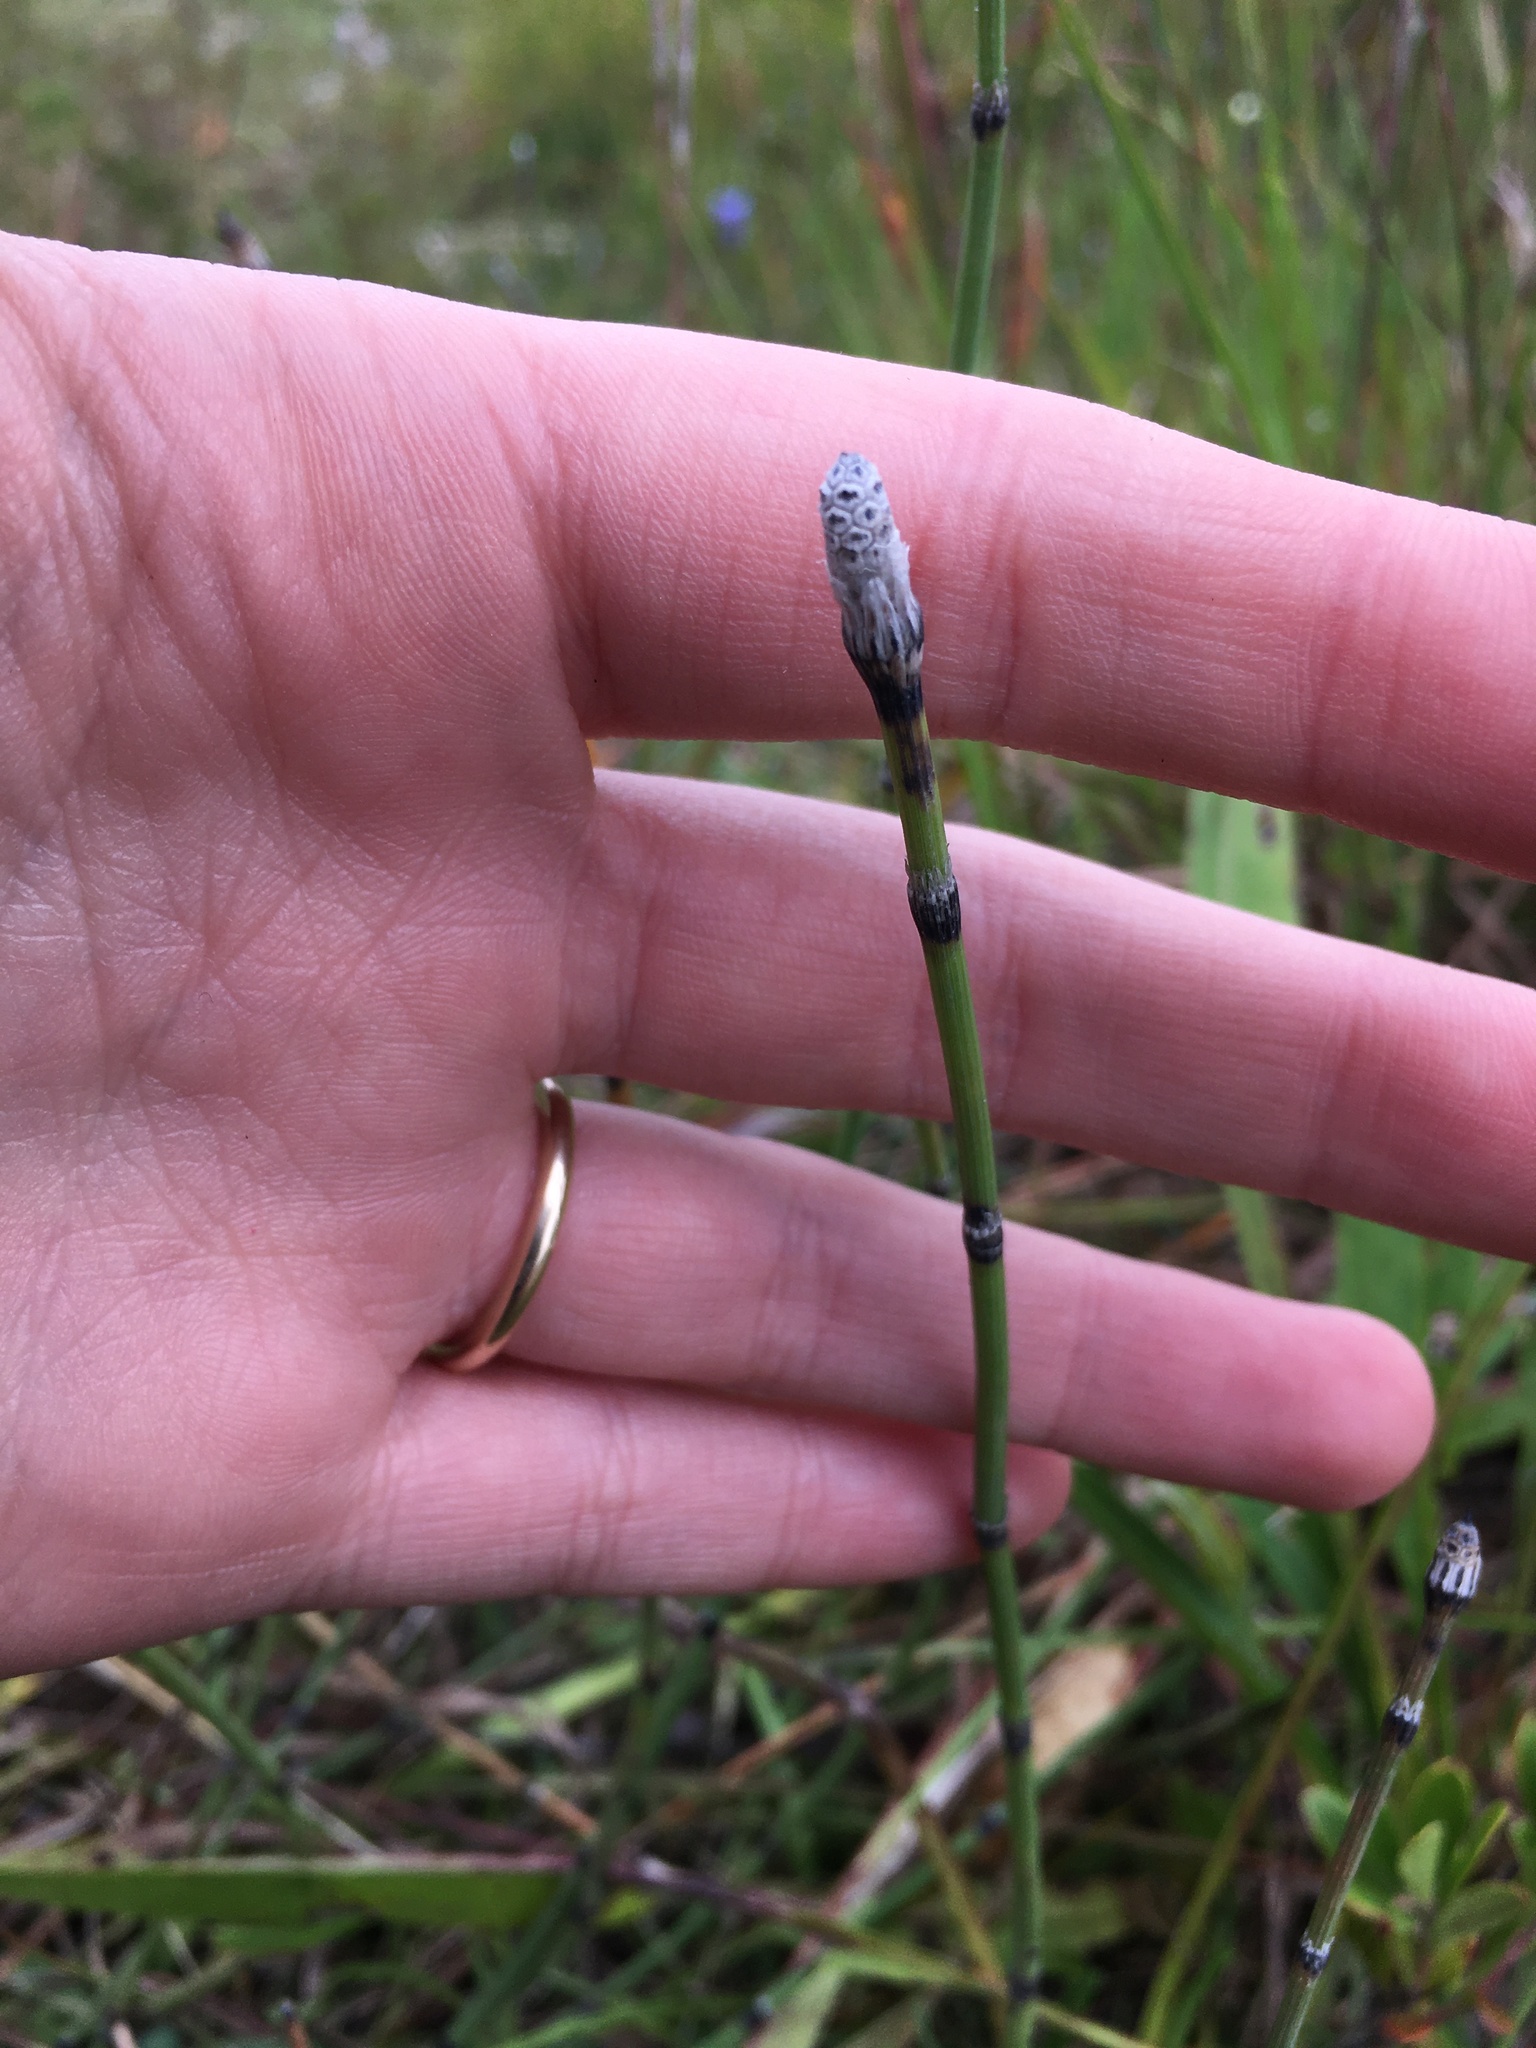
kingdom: Plantae
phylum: Tracheophyta
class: Polypodiopsida
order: Equisetales
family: Equisetaceae
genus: Equisetum
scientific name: Equisetum trachyodon
